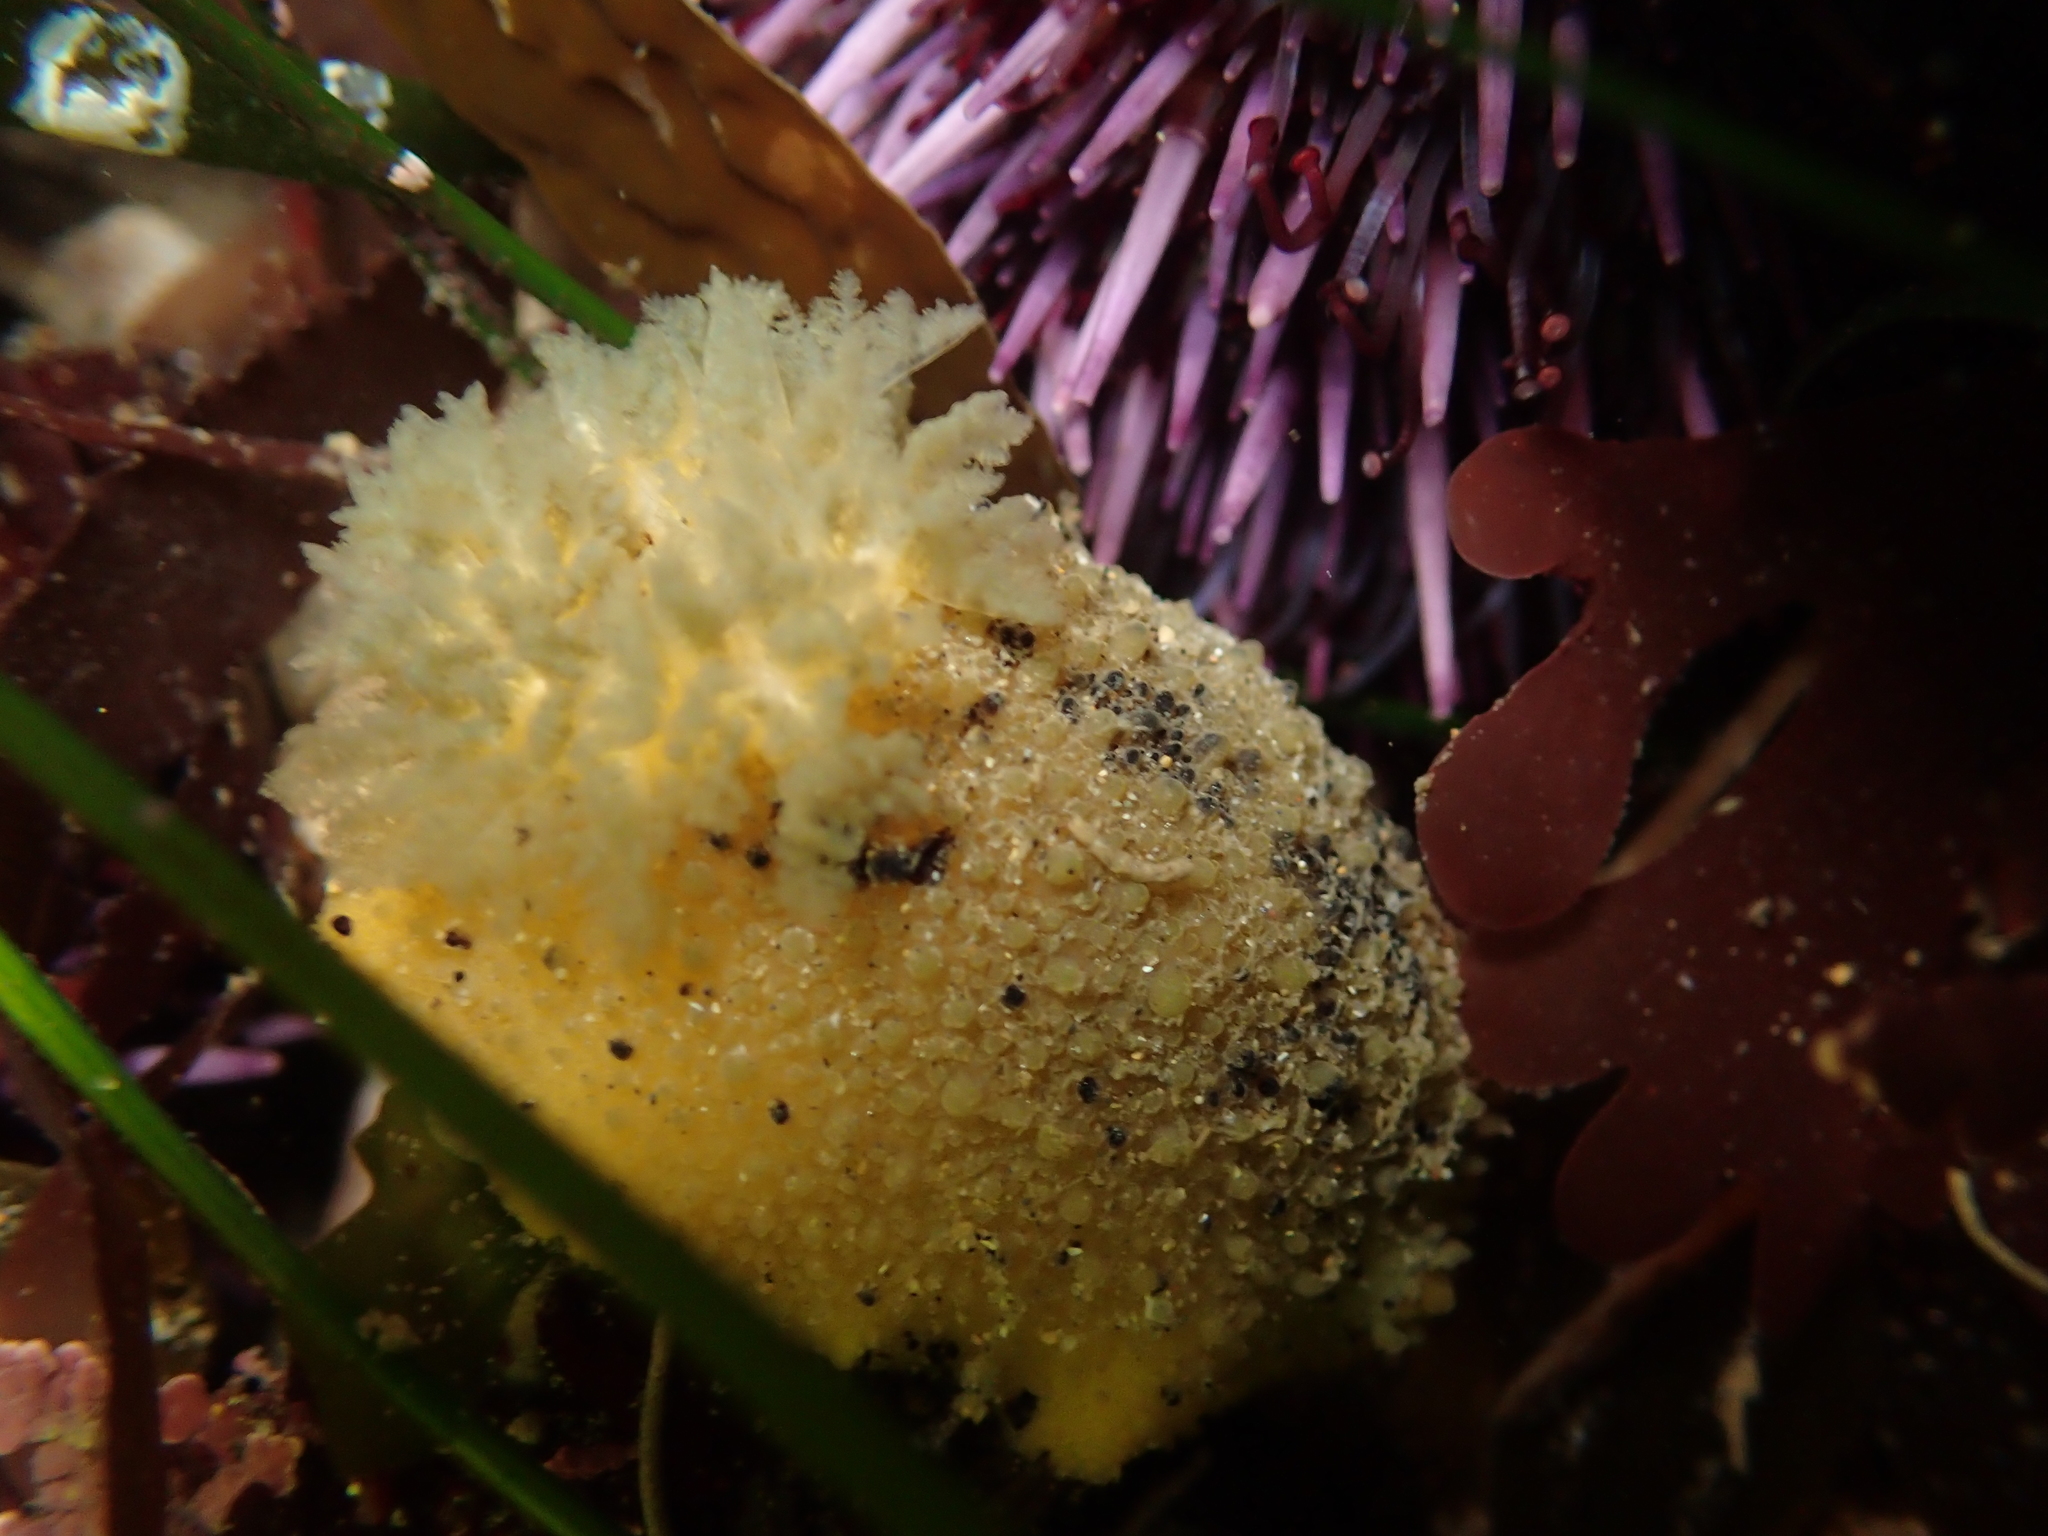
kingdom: Animalia
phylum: Mollusca
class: Gastropoda
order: Nudibranchia
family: Dorididae
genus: Doris
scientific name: Doris montereyensis
